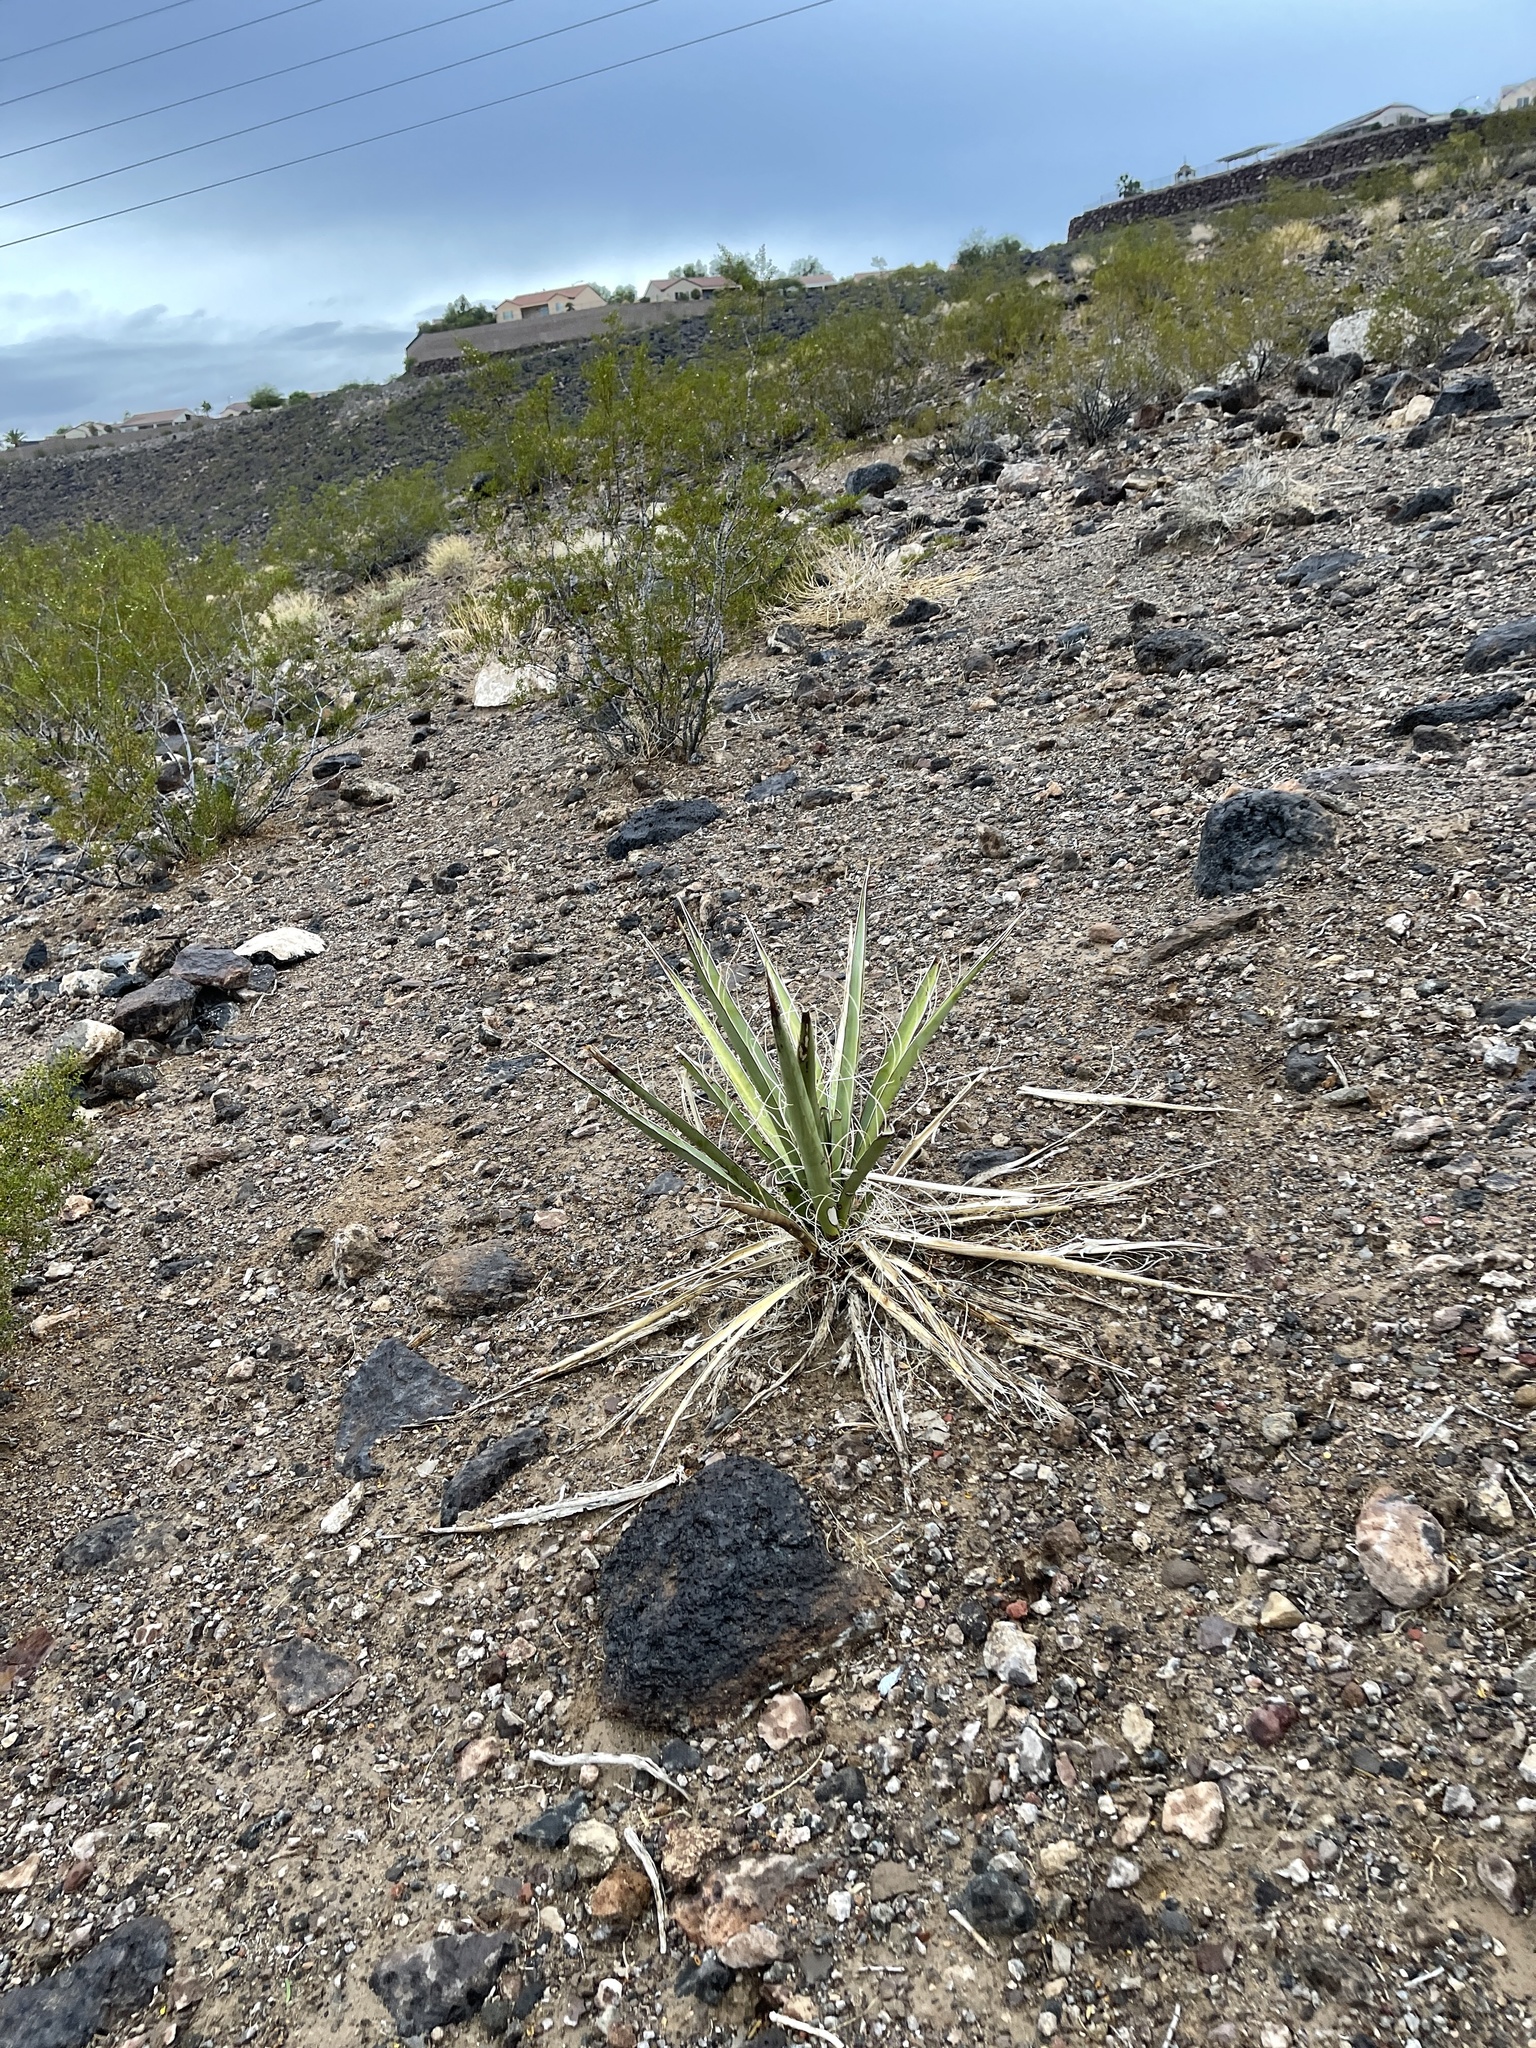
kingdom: Plantae
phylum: Tracheophyta
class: Liliopsida
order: Asparagales
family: Asparagaceae
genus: Yucca
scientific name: Yucca baccata
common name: Banana yucca
